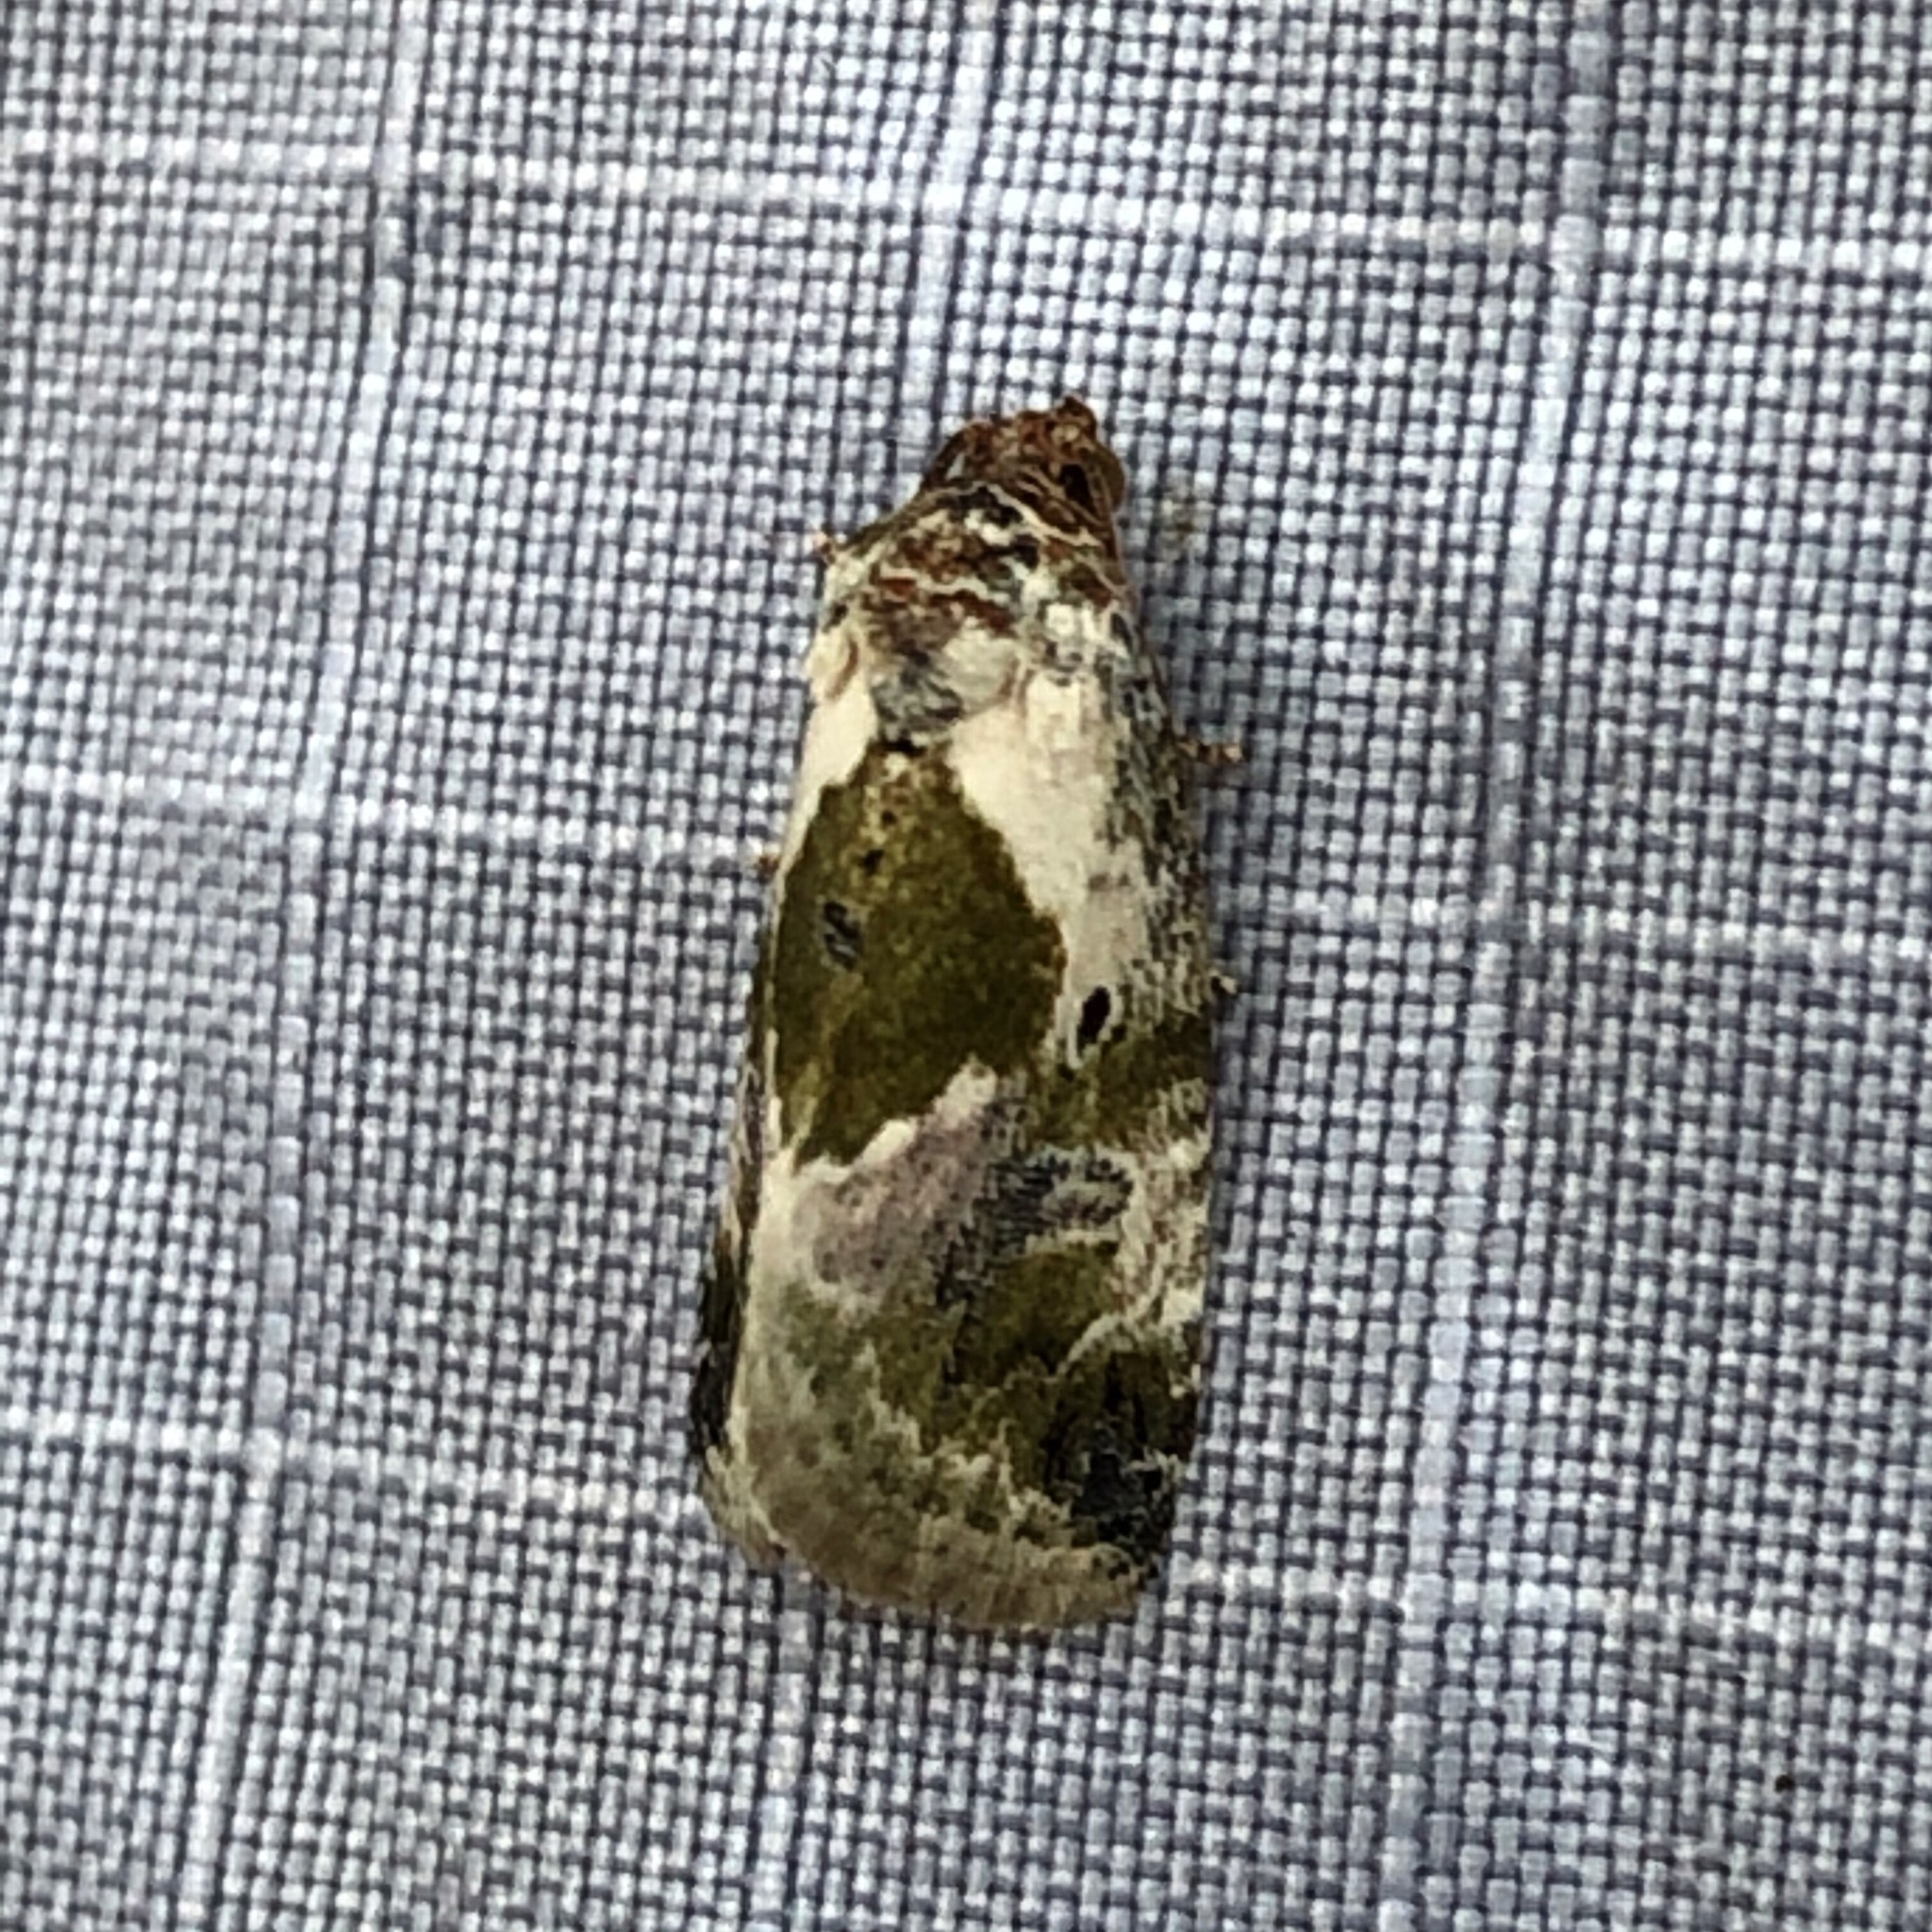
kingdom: Animalia
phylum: Arthropoda
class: Insecta
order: Lepidoptera
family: Noctuidae
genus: Maliattha
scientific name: Maliattha synochitis
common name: Black-dotted glyph
